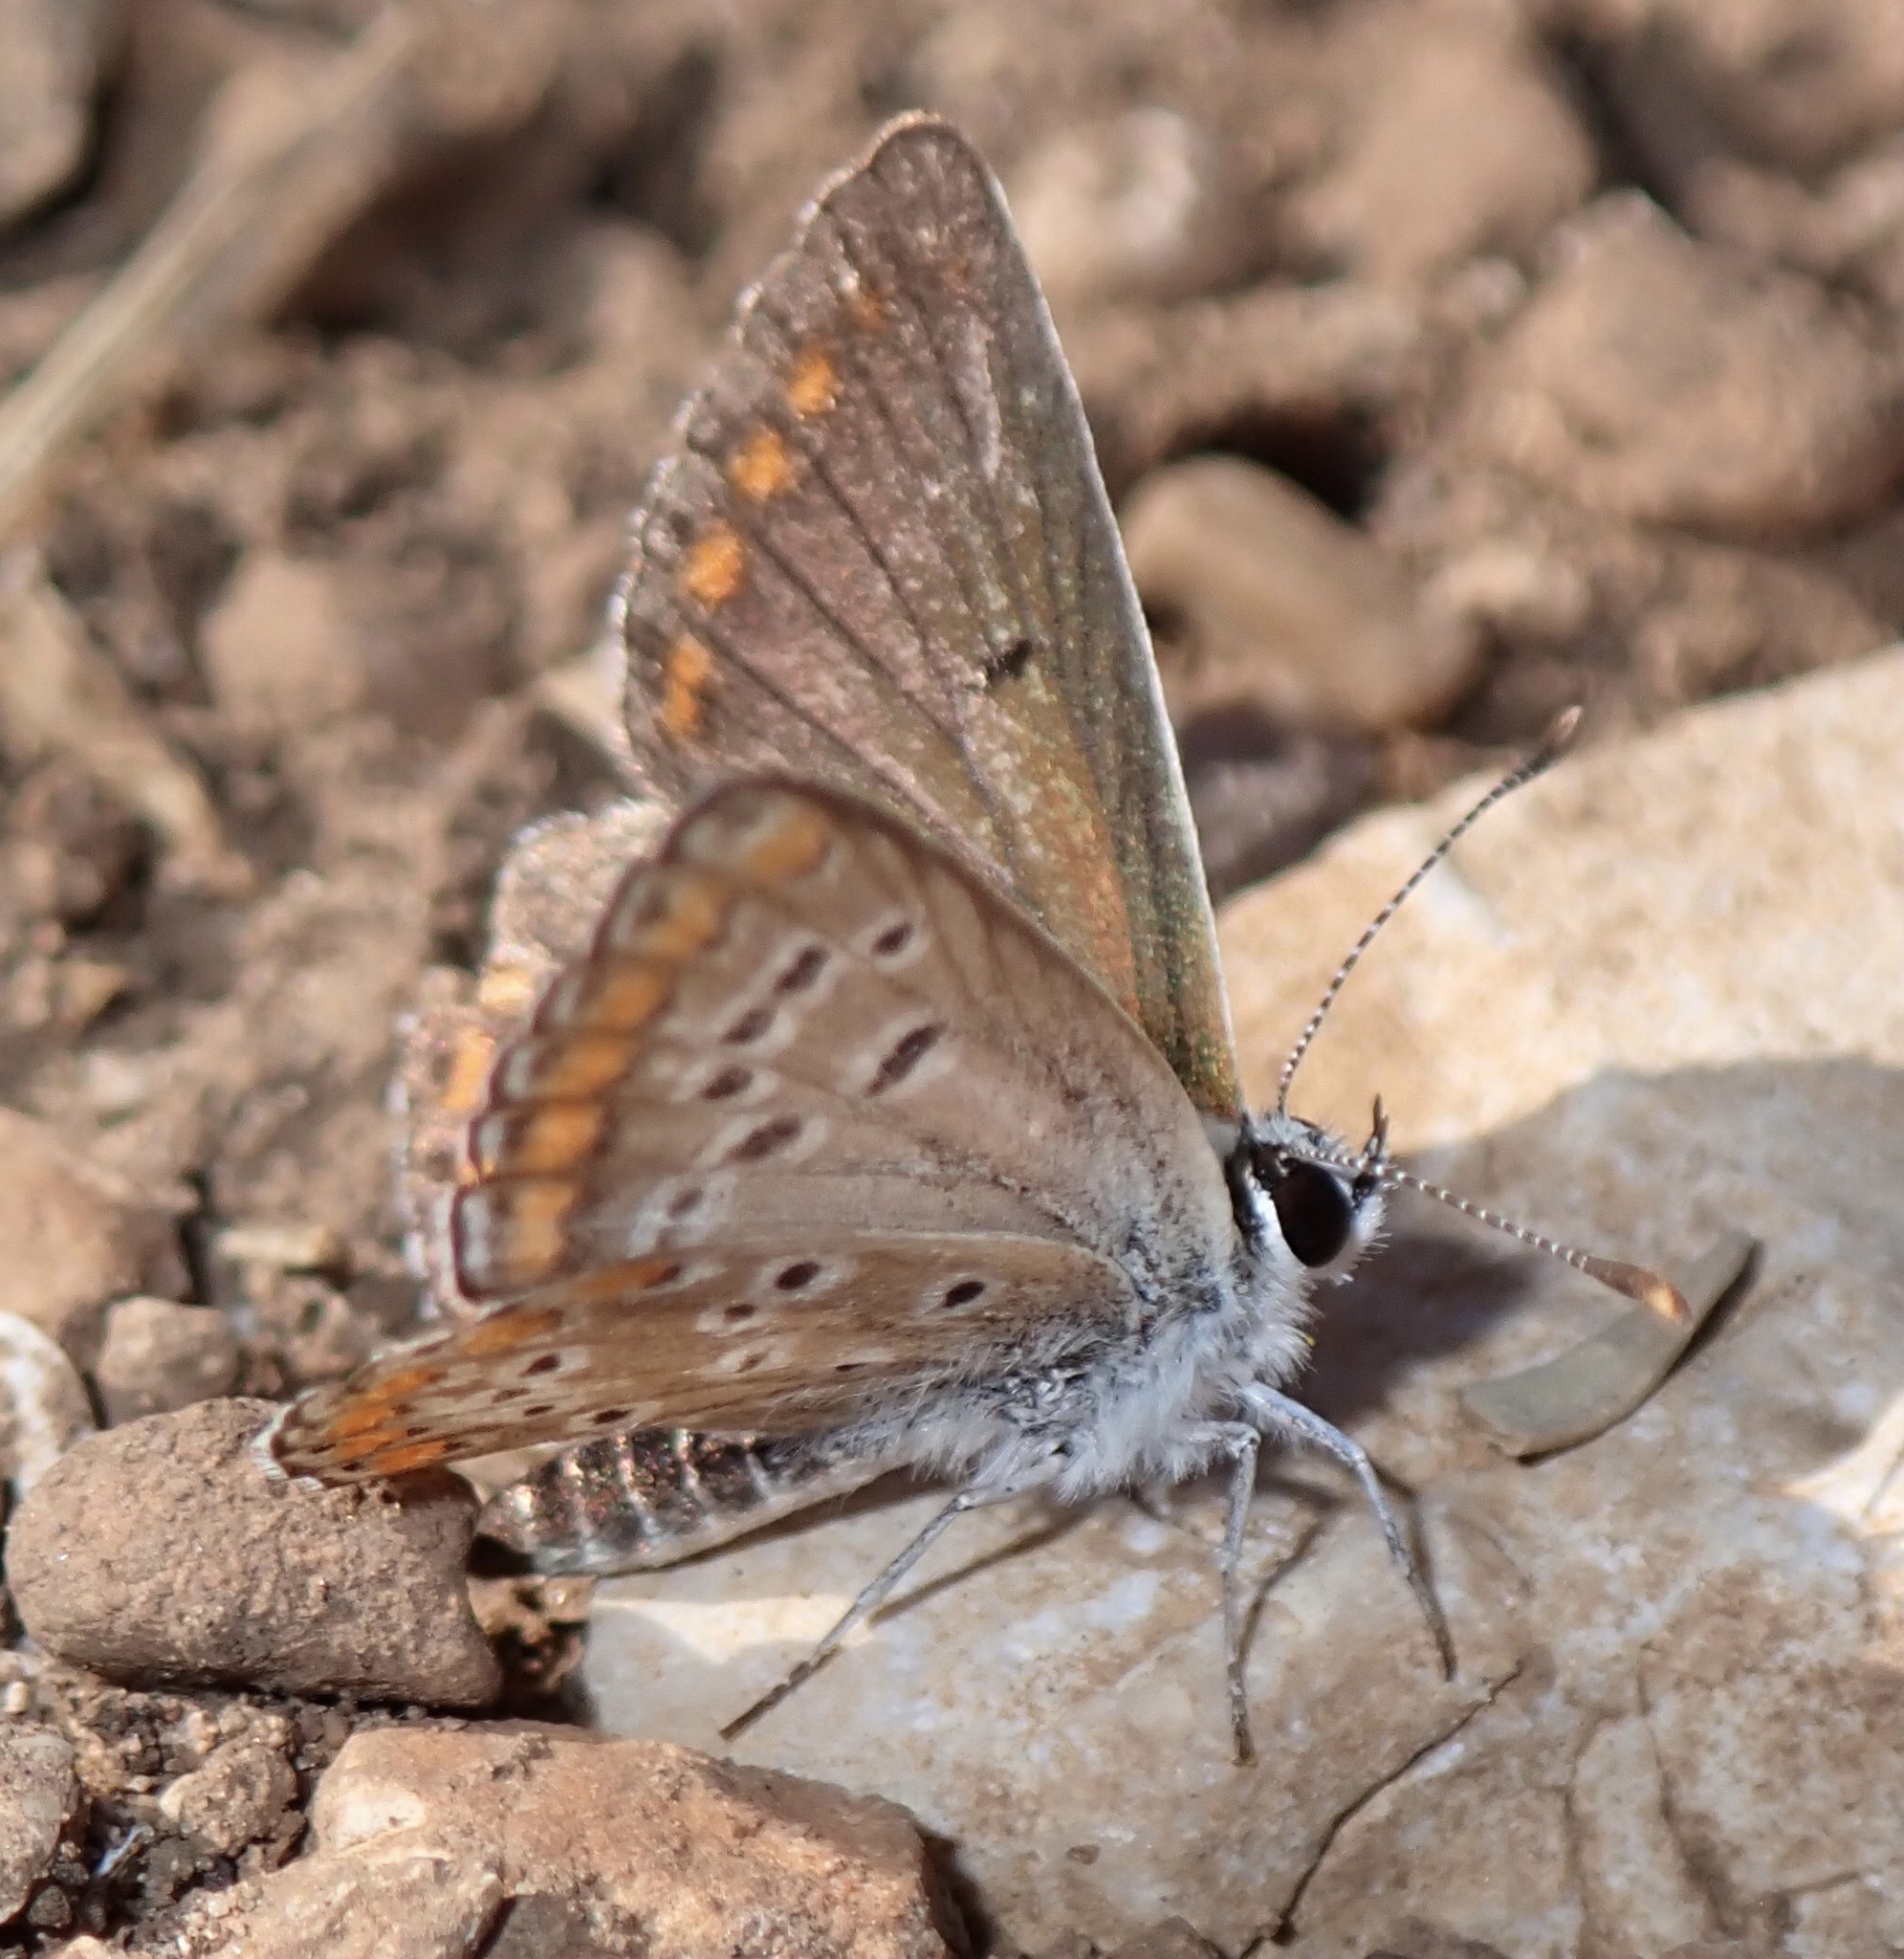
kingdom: Animalia
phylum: Arthropoda
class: Insecta
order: Lepidoptera
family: Lycaenidae
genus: Aricia
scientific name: Aricia agestis
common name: Brown argus
